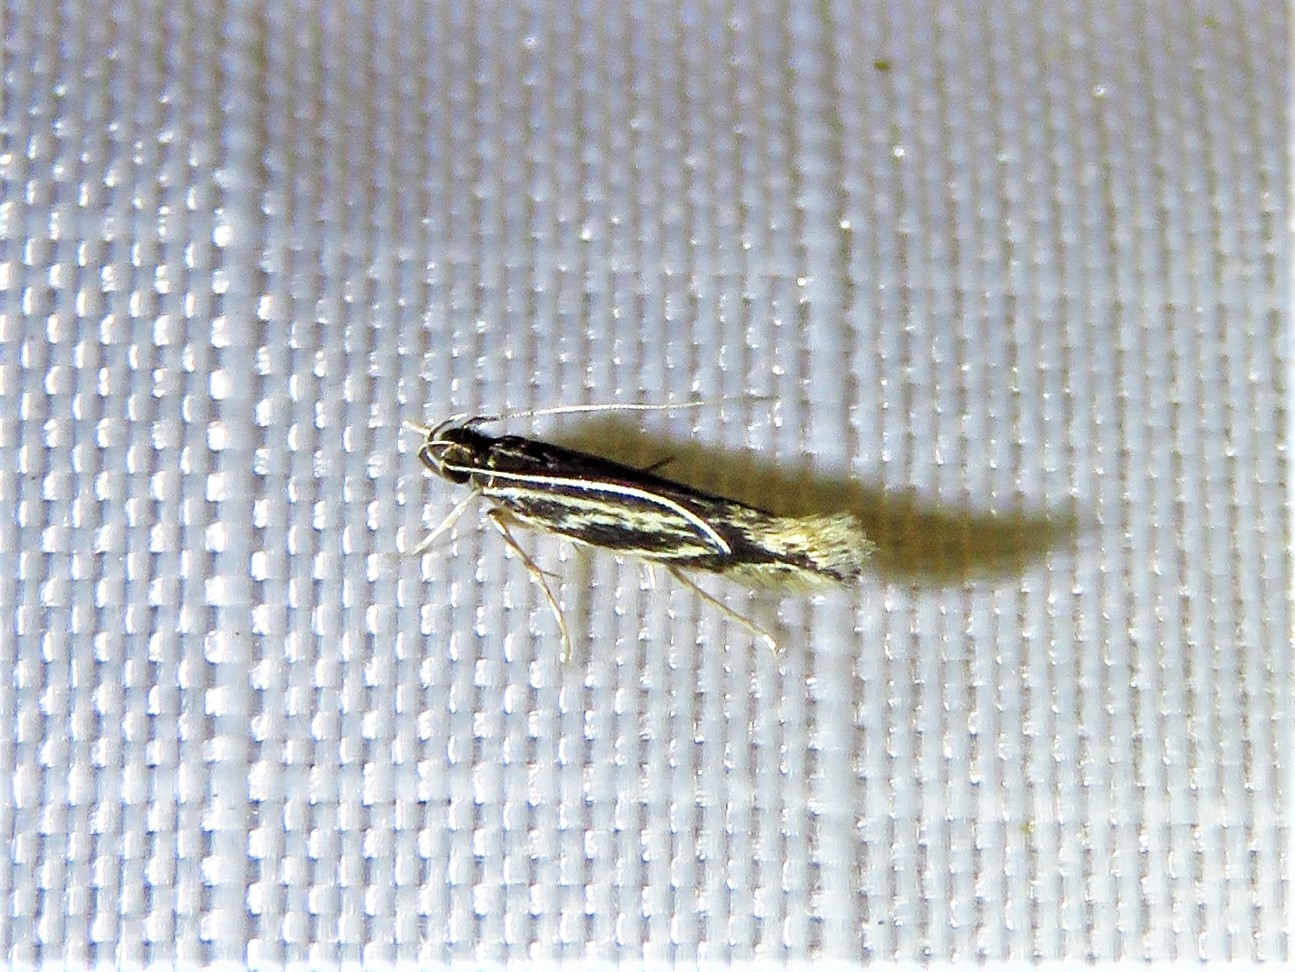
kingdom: Animalia
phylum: Arthropoda
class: Insecta
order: Lepidoptera
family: Cosmopterigidae
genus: Eralea
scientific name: Eralea albalineella
